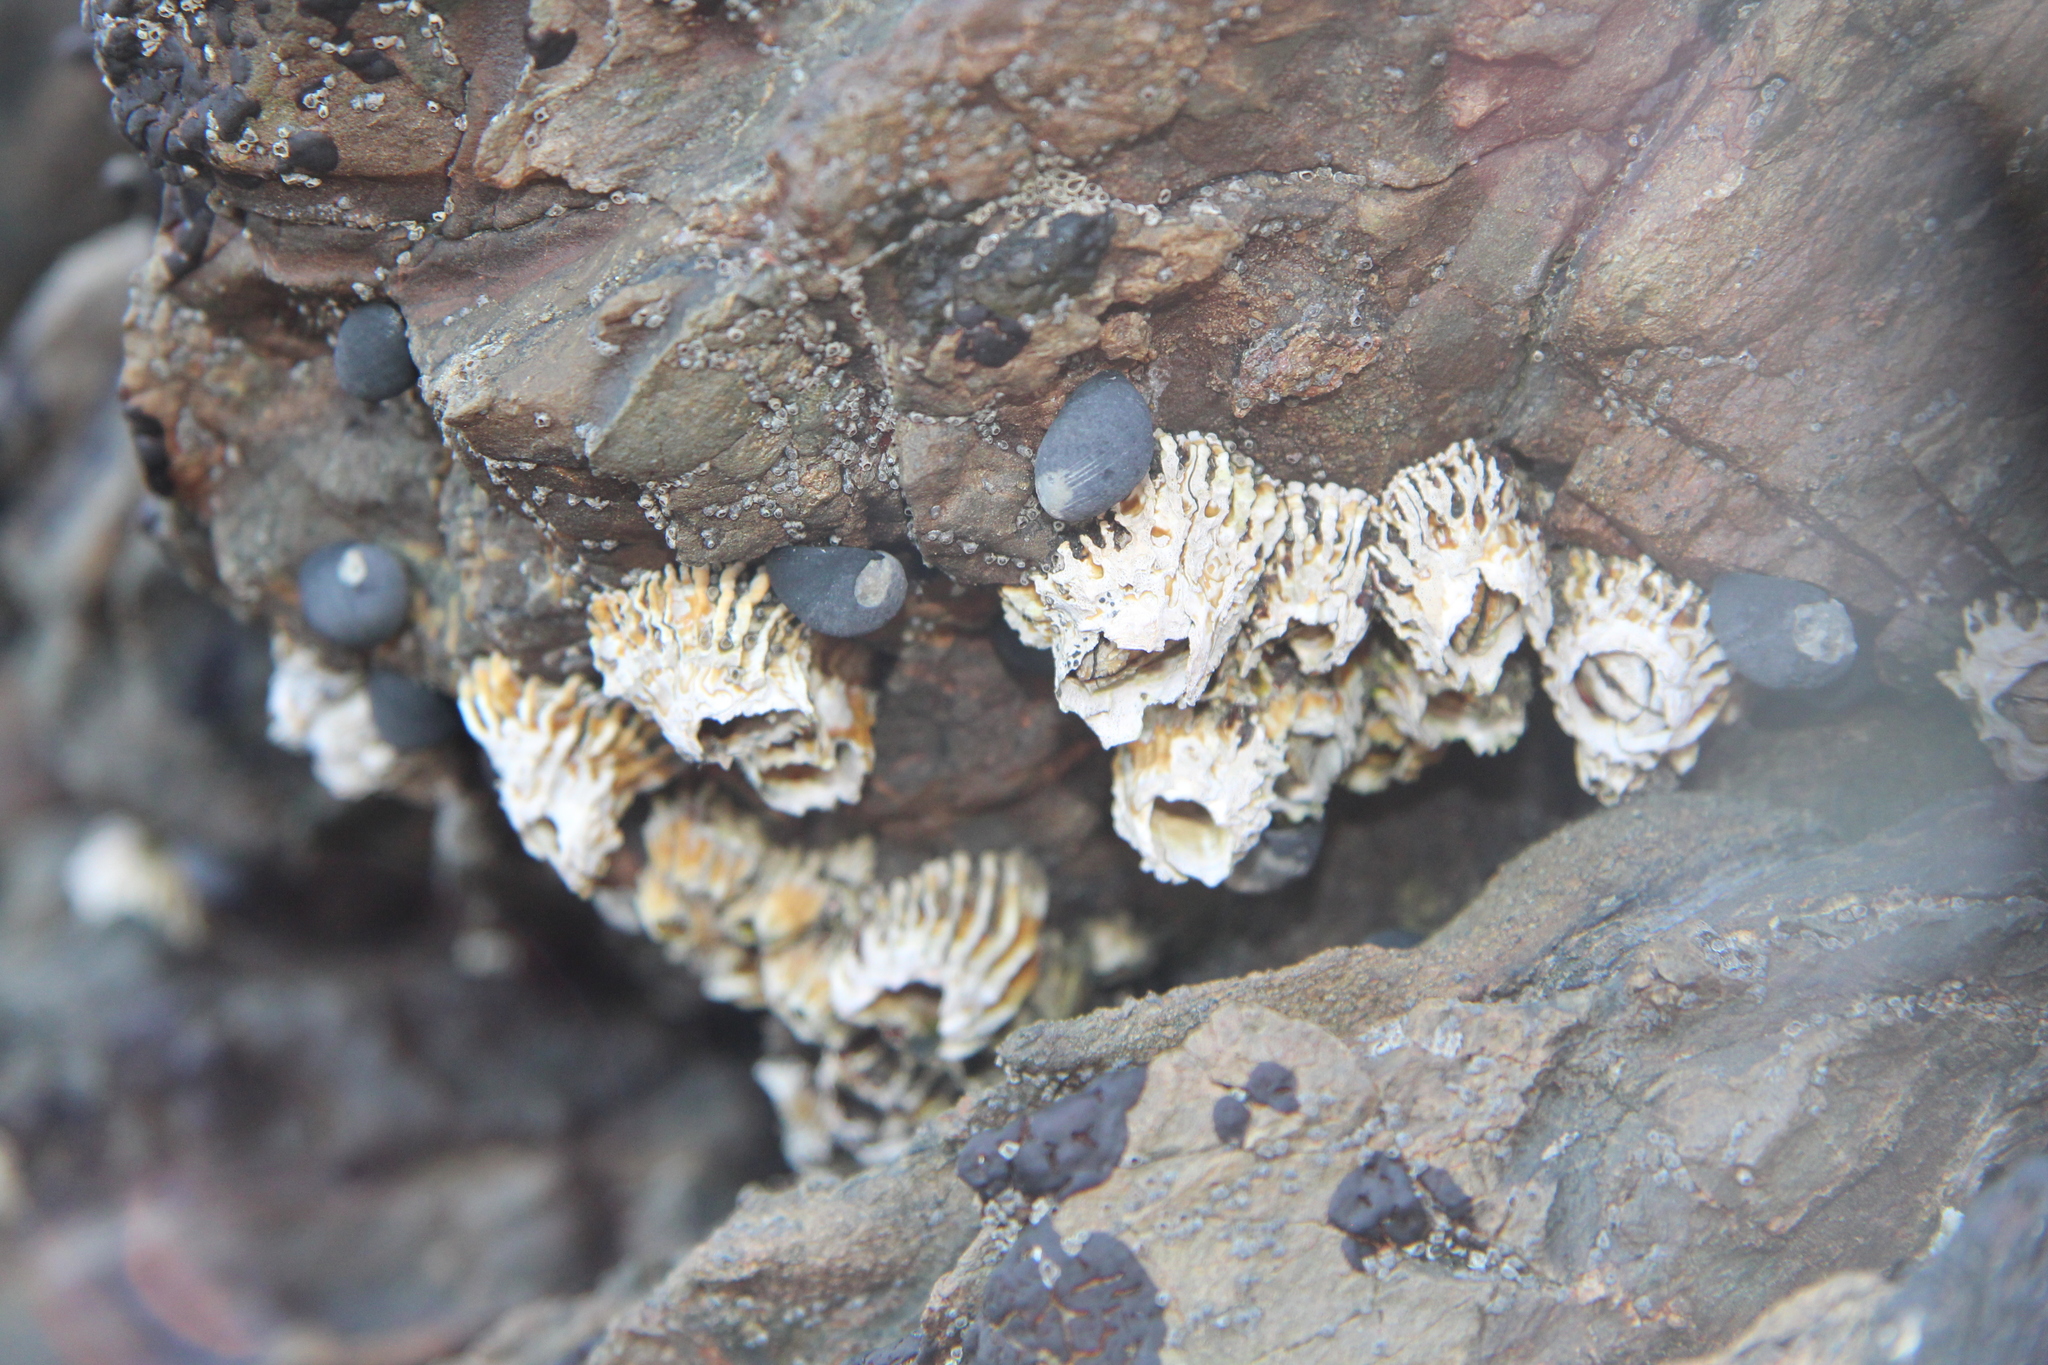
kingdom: Animalia
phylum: Arthropoda
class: Maxillopoda
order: Sessilia
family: Tetraclitidae
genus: Epopella
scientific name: Epopella plicata
